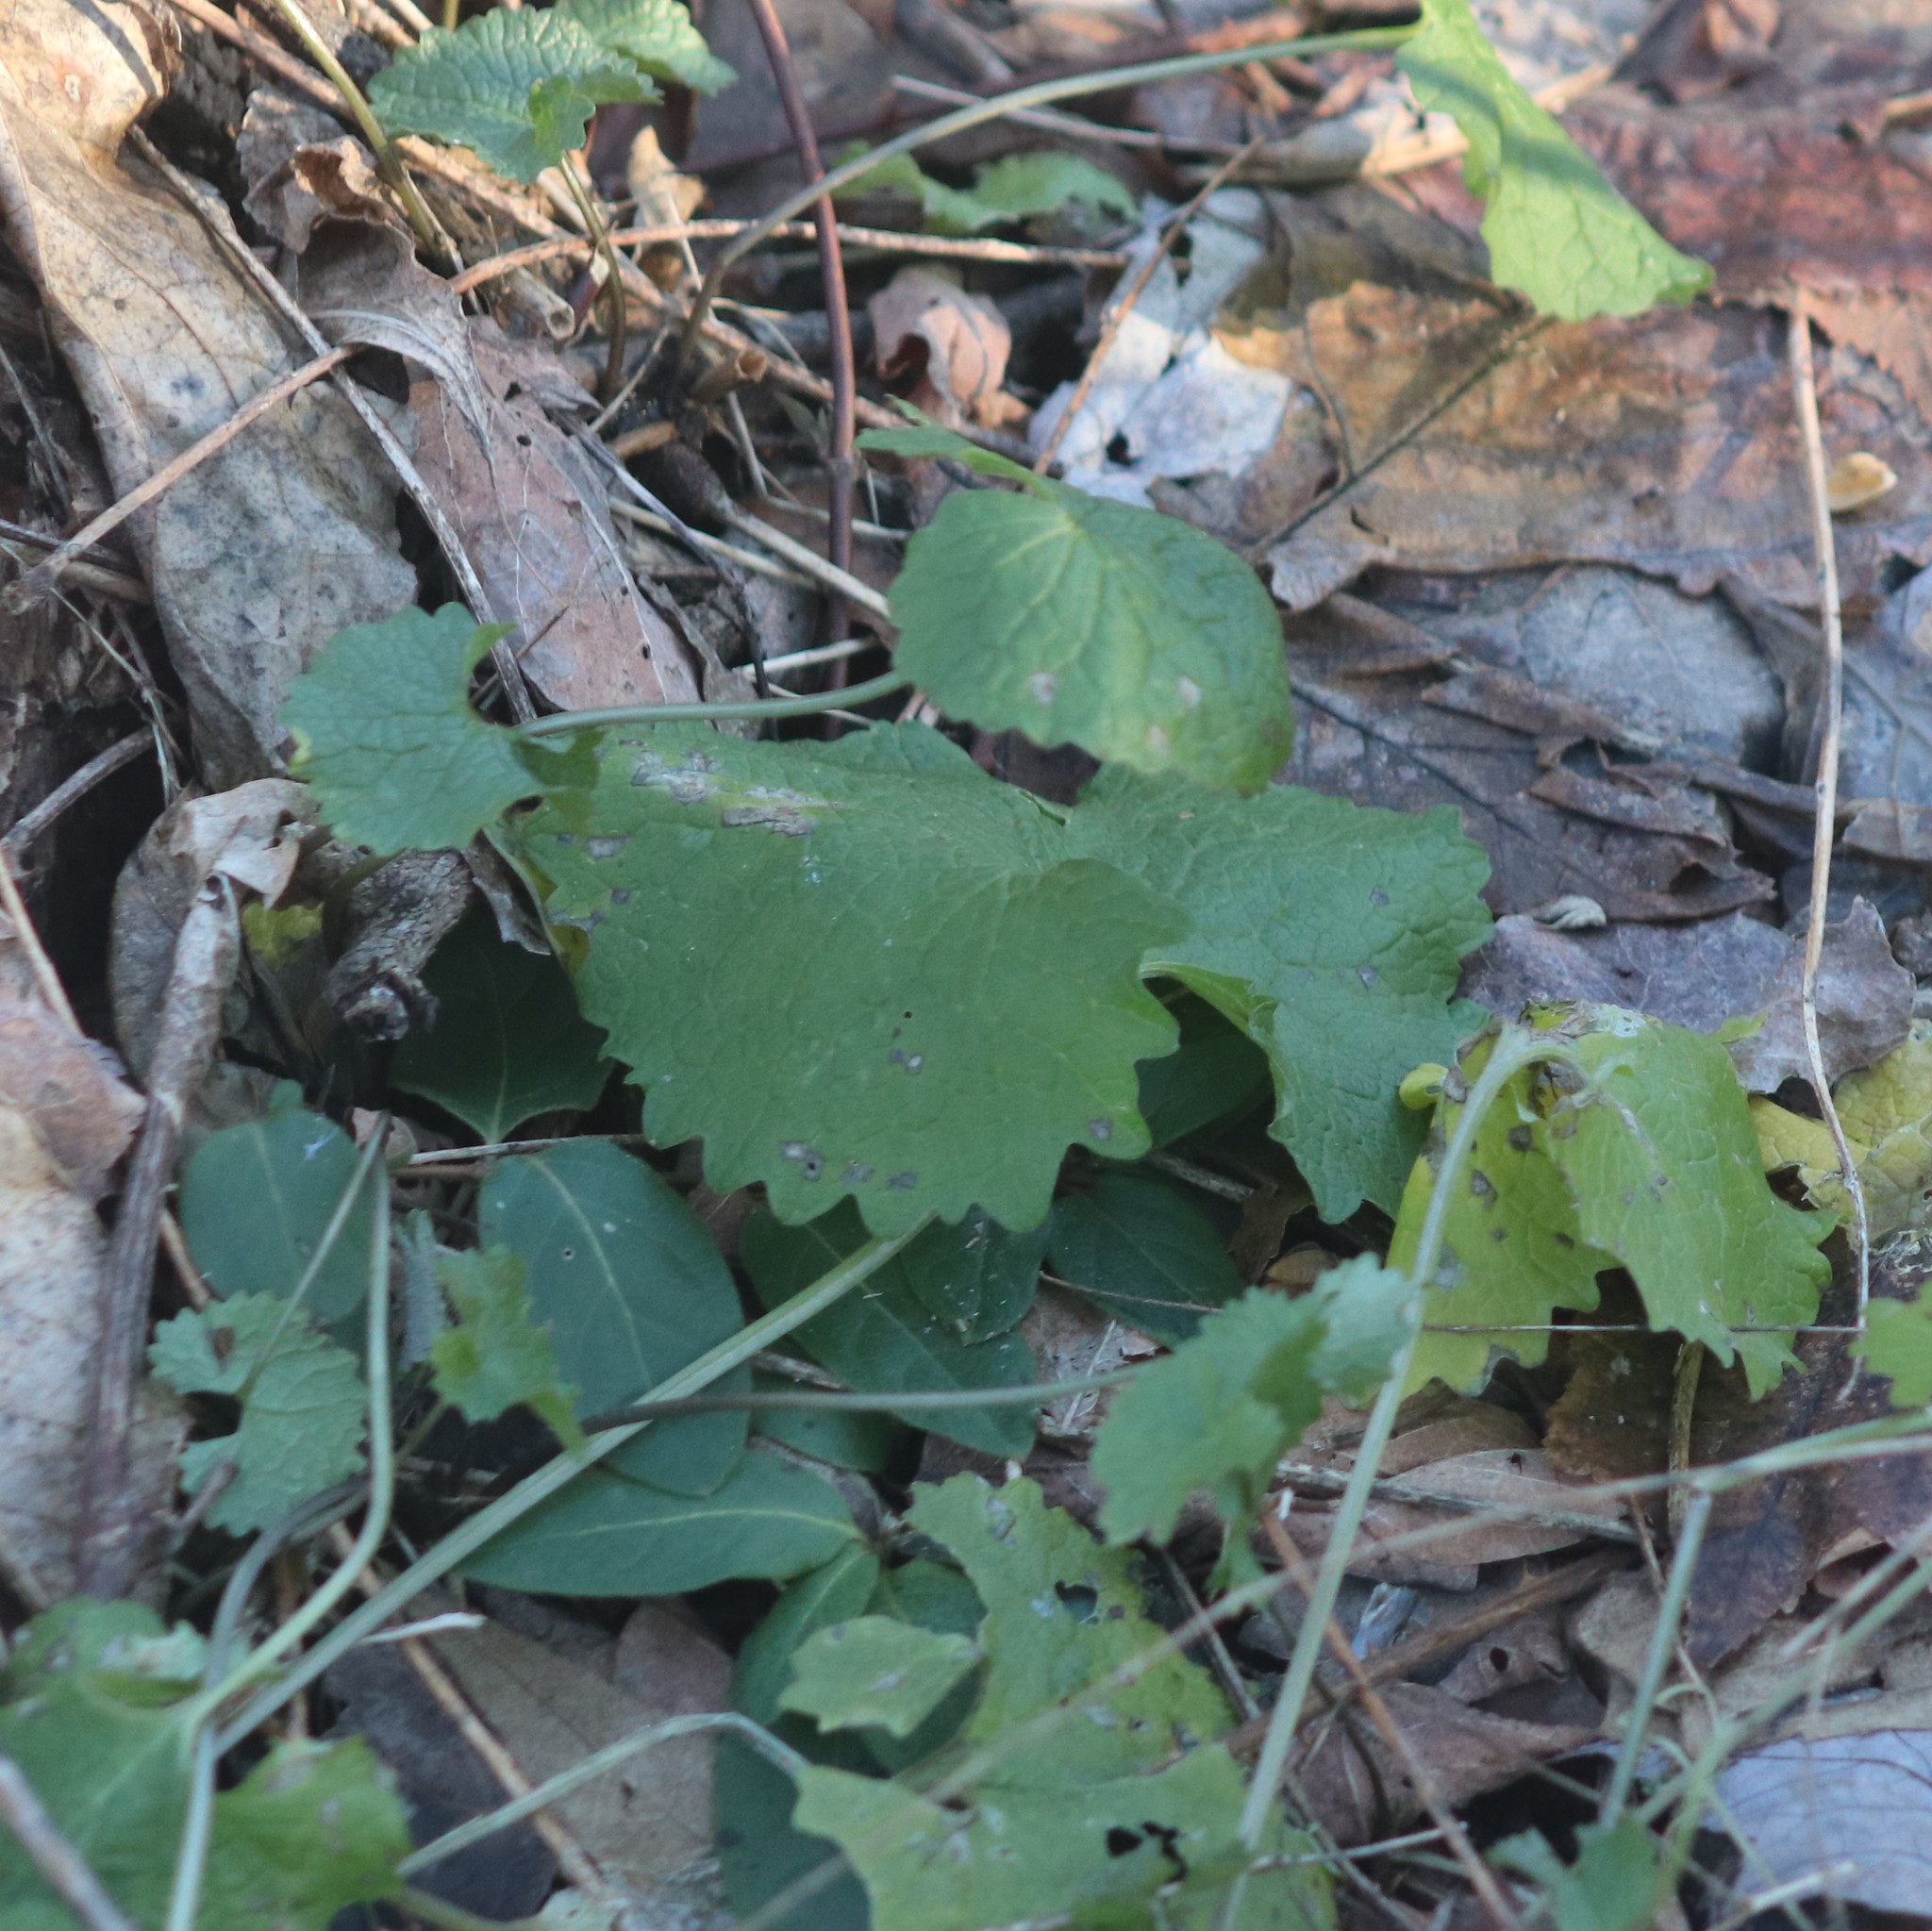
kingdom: Plantae
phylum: Tracheophyta
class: Magnoliopsida
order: Brassicales
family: Brassicaceae
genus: Alliaria
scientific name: Alliaria petiolata
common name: Garlic mustard
